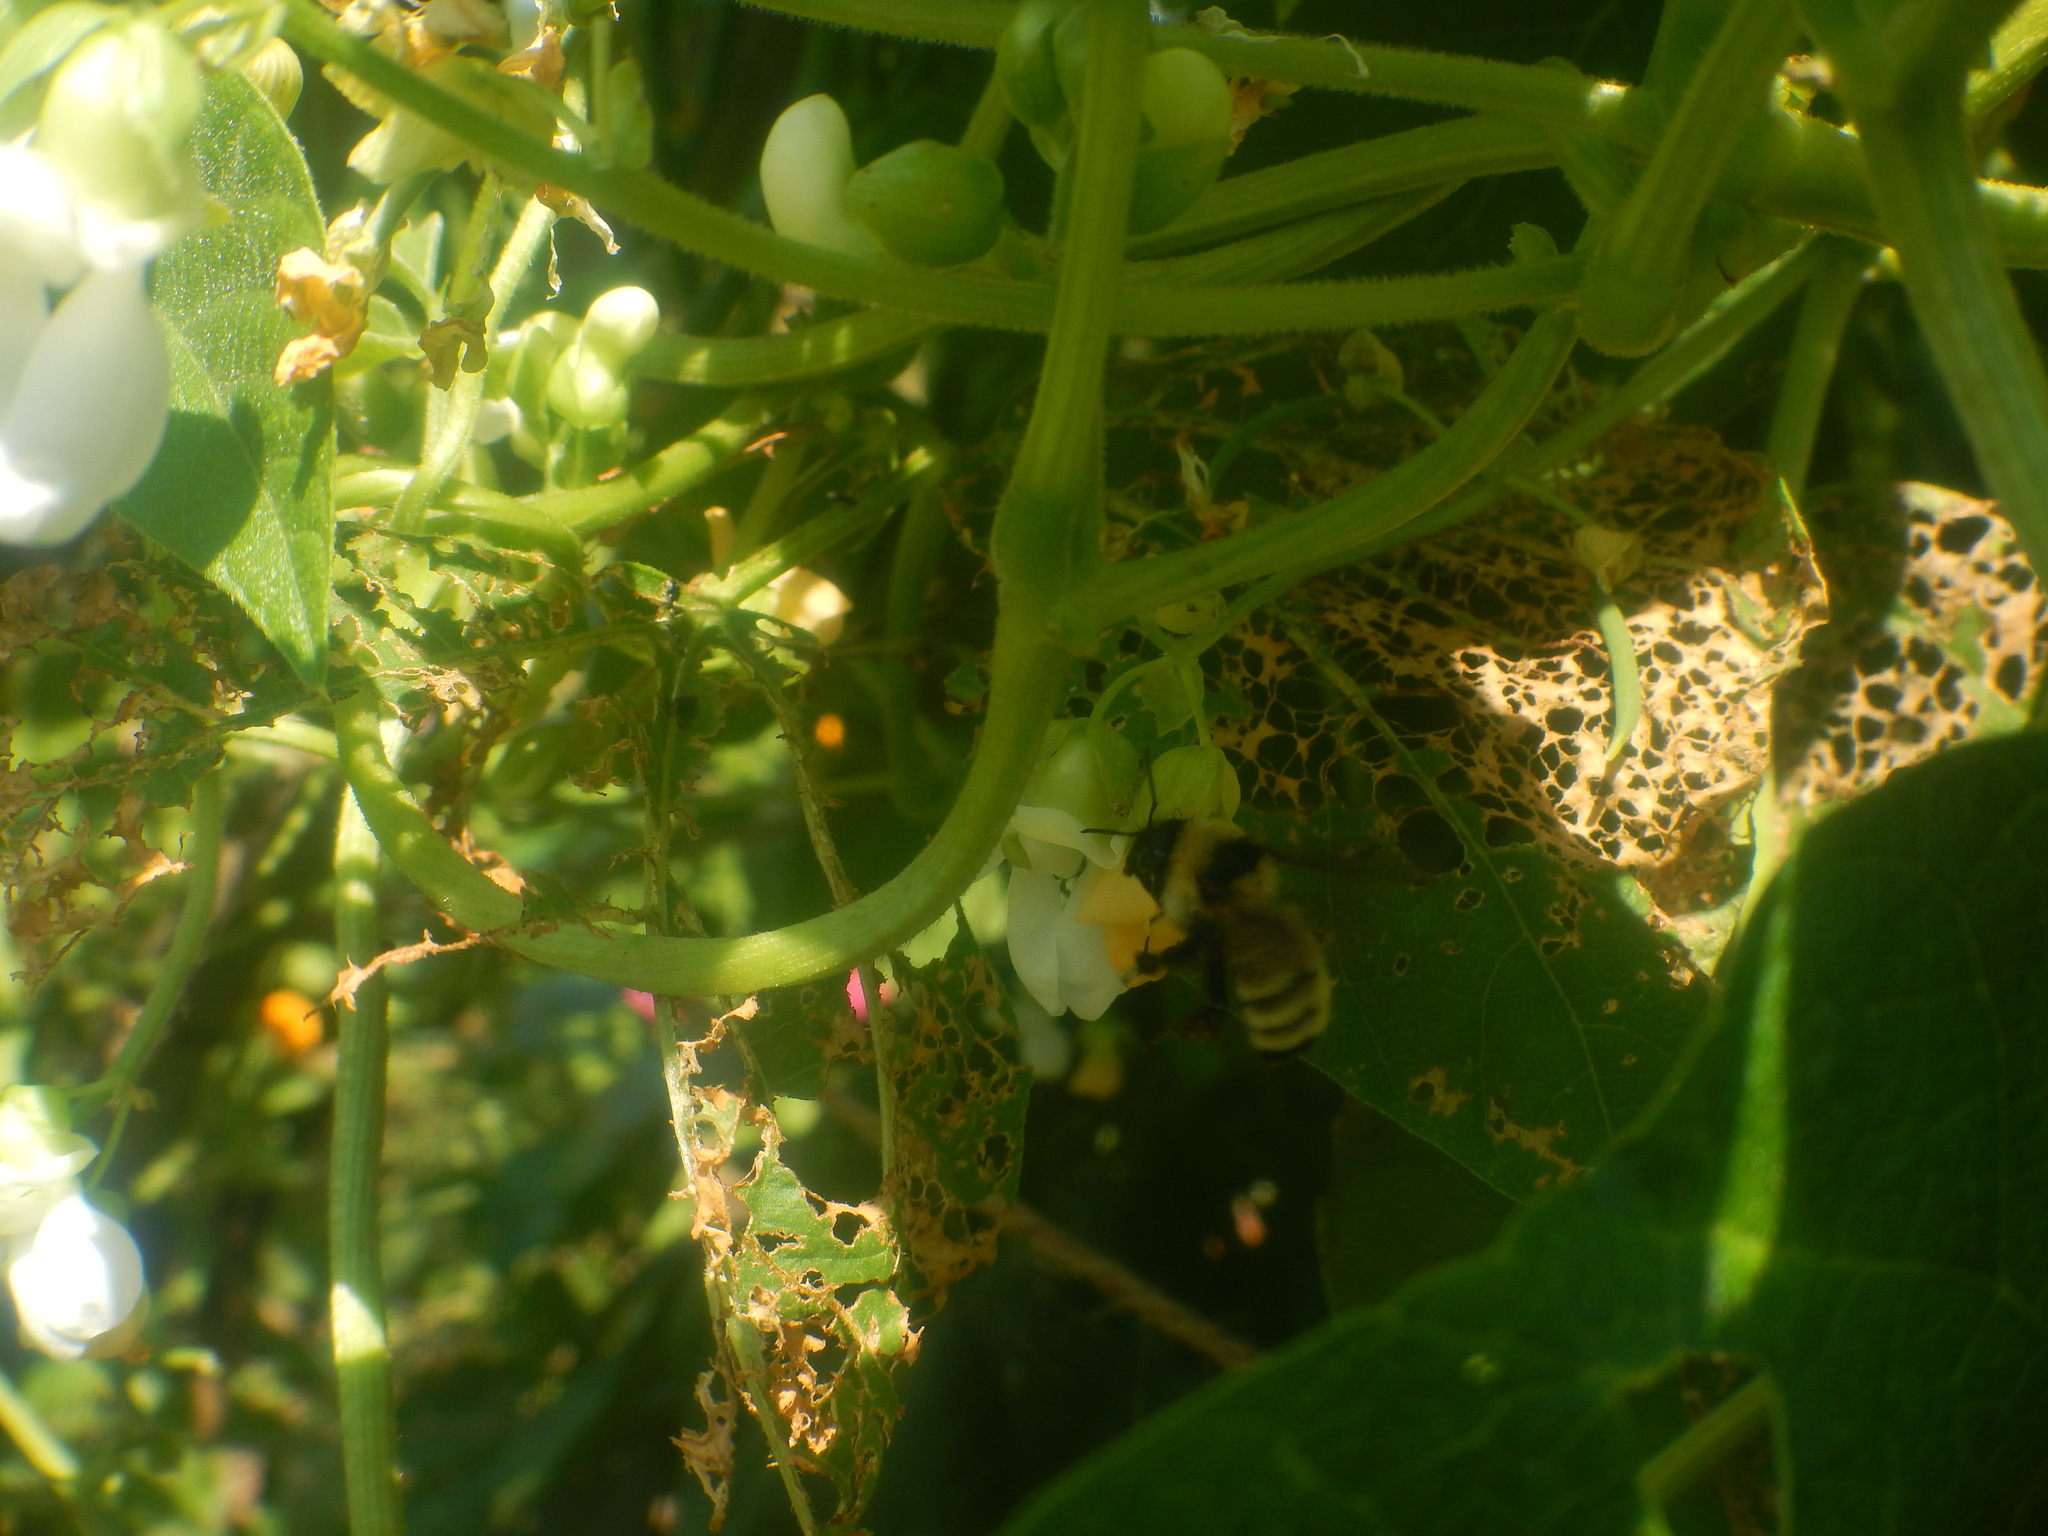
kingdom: Animalia
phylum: Arthropoda
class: Insecta
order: Hymenoptera
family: Apidae
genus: Bombus
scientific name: Bombus fervidus
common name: Yellow bumble bee
